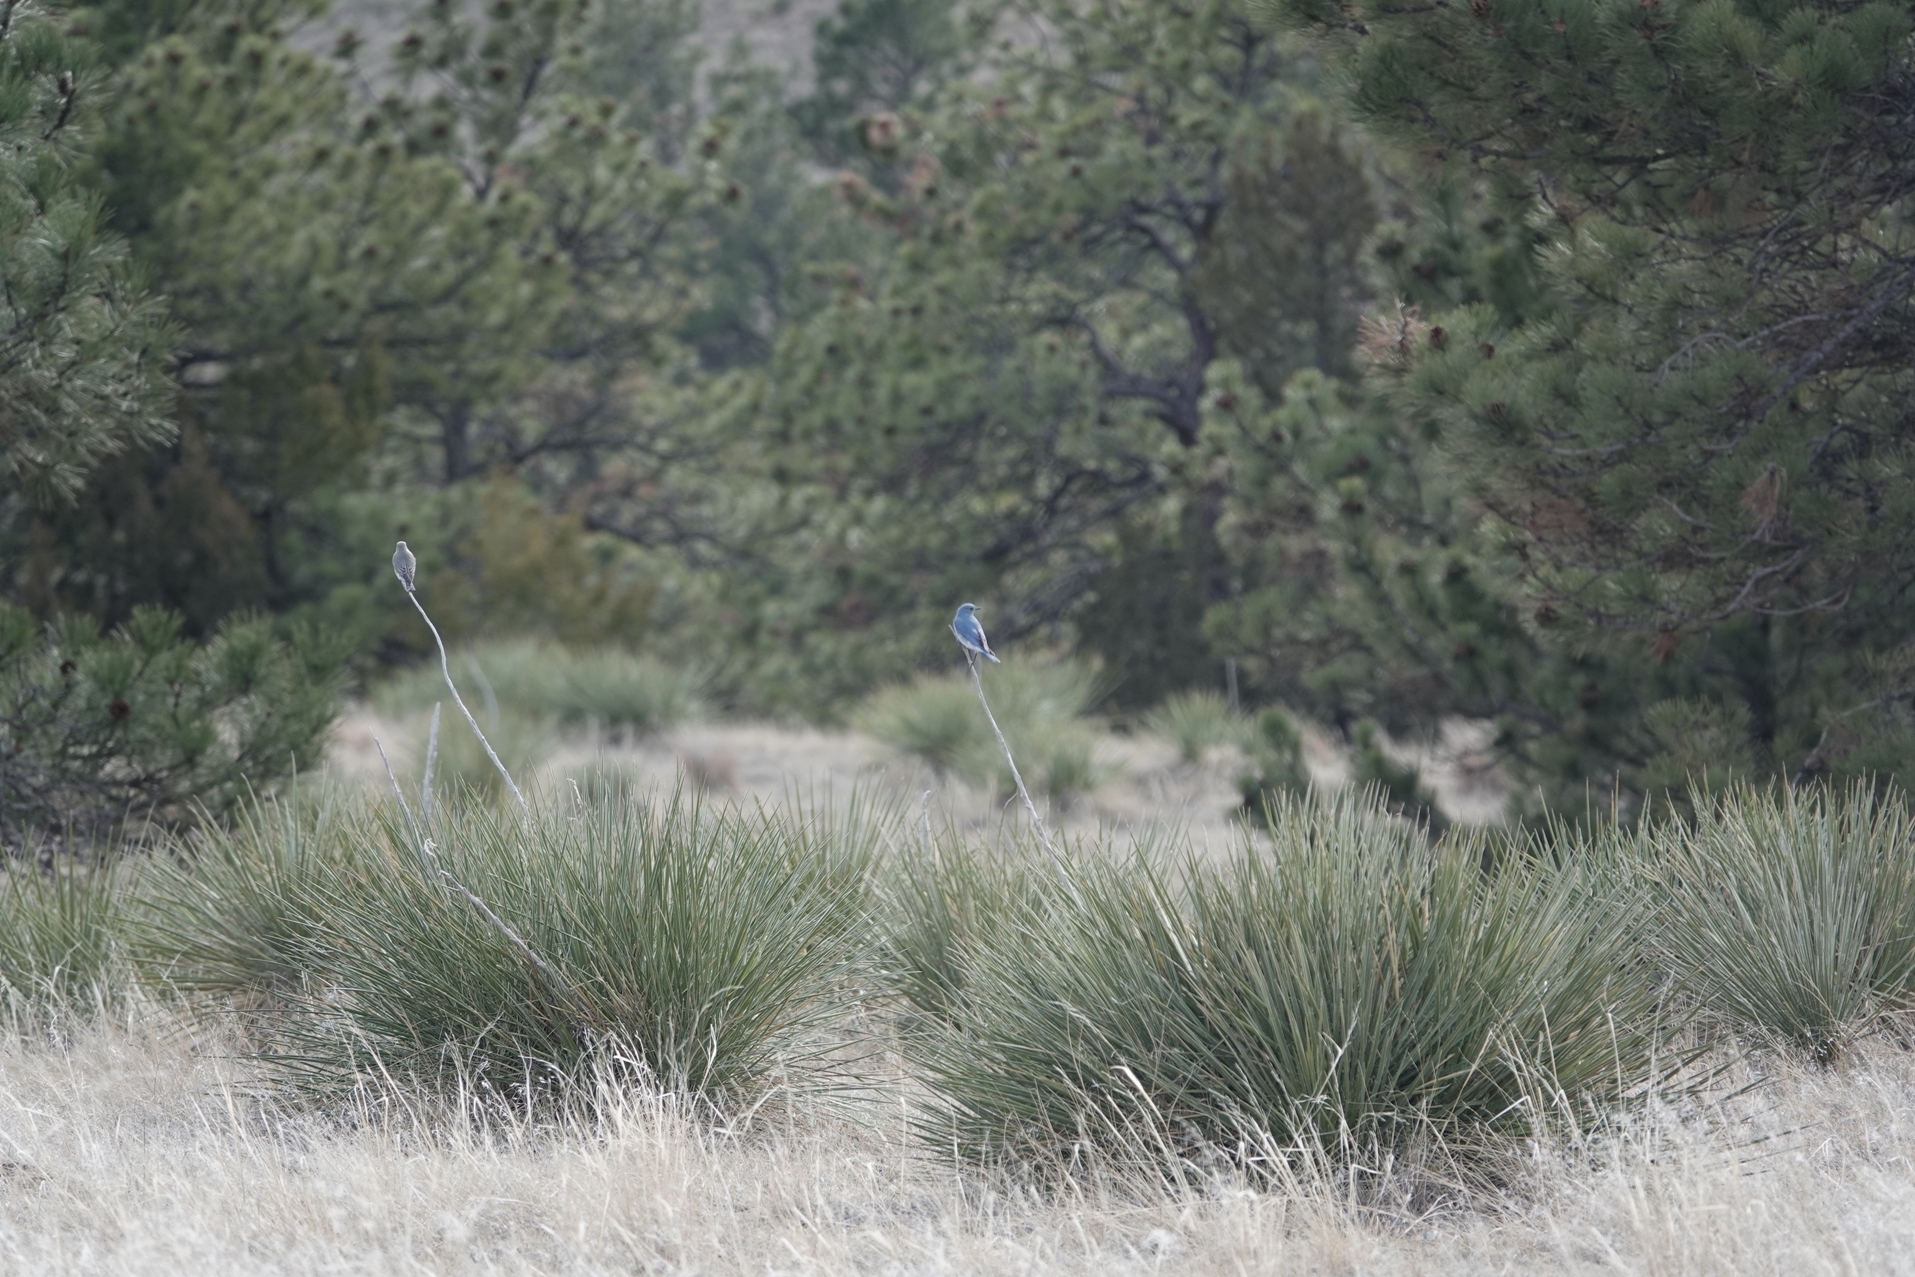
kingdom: Animalia
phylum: Chordata
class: Aves
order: Passeriformes
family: Turdidae
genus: Sialia
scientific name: Sialia currucoides
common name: Mountain bluebird
